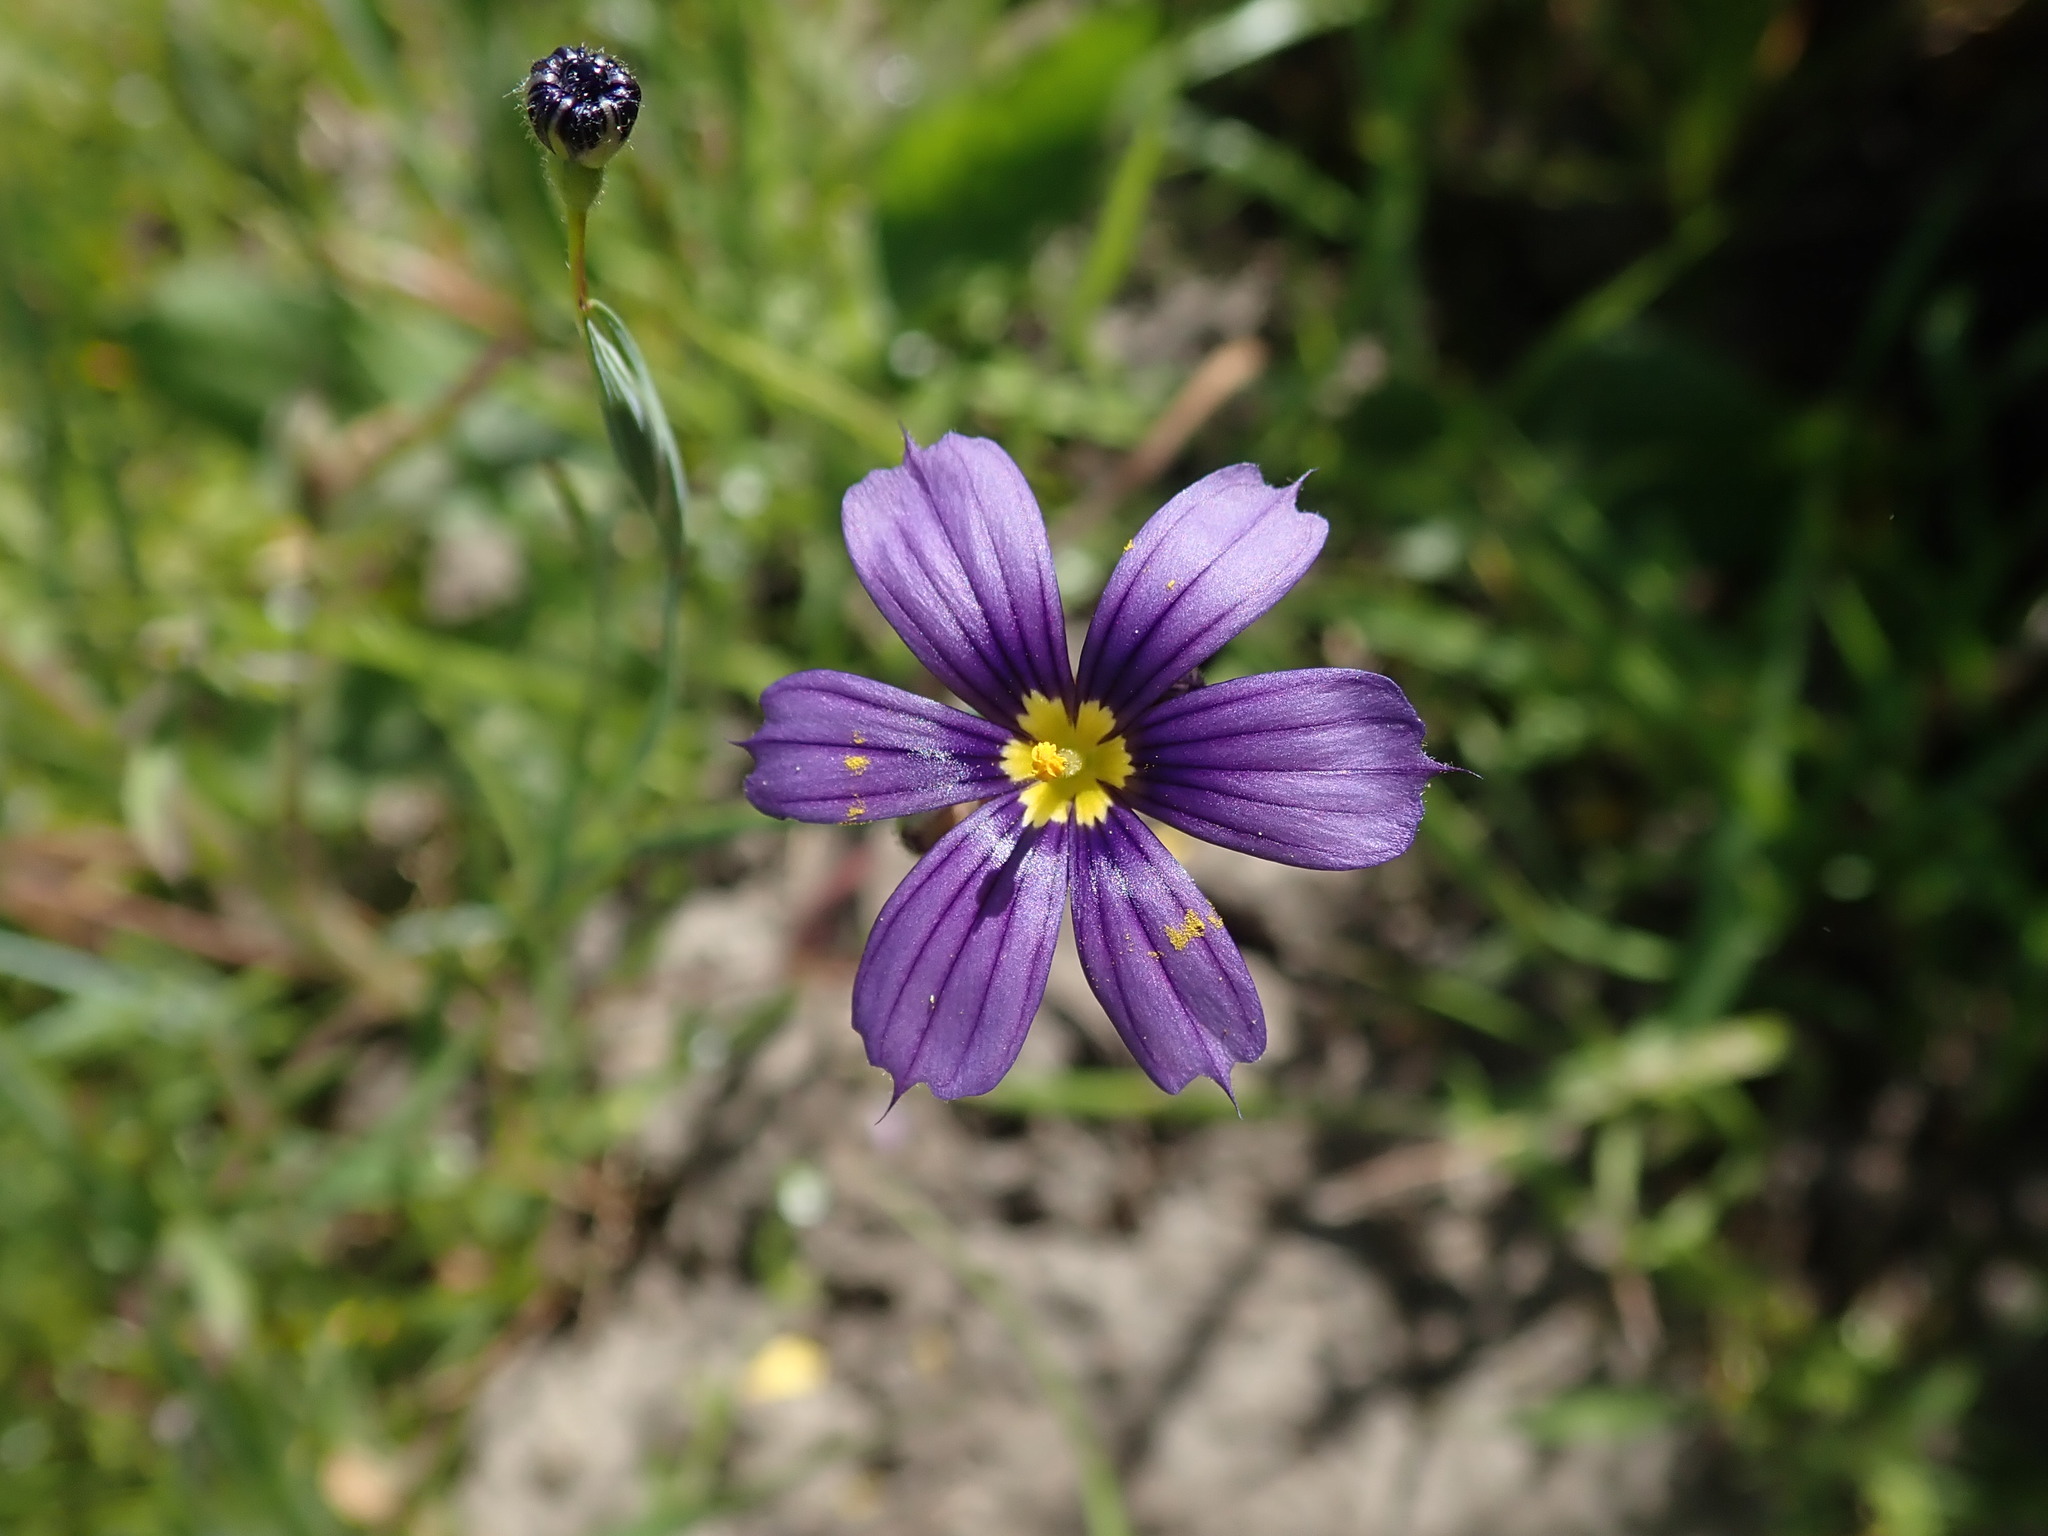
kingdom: Plantae
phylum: Tracheophyta
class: Liliopsida
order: Asparagales
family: Iridaceae
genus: Sisyrinchium
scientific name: Sisyrinchium bellum
